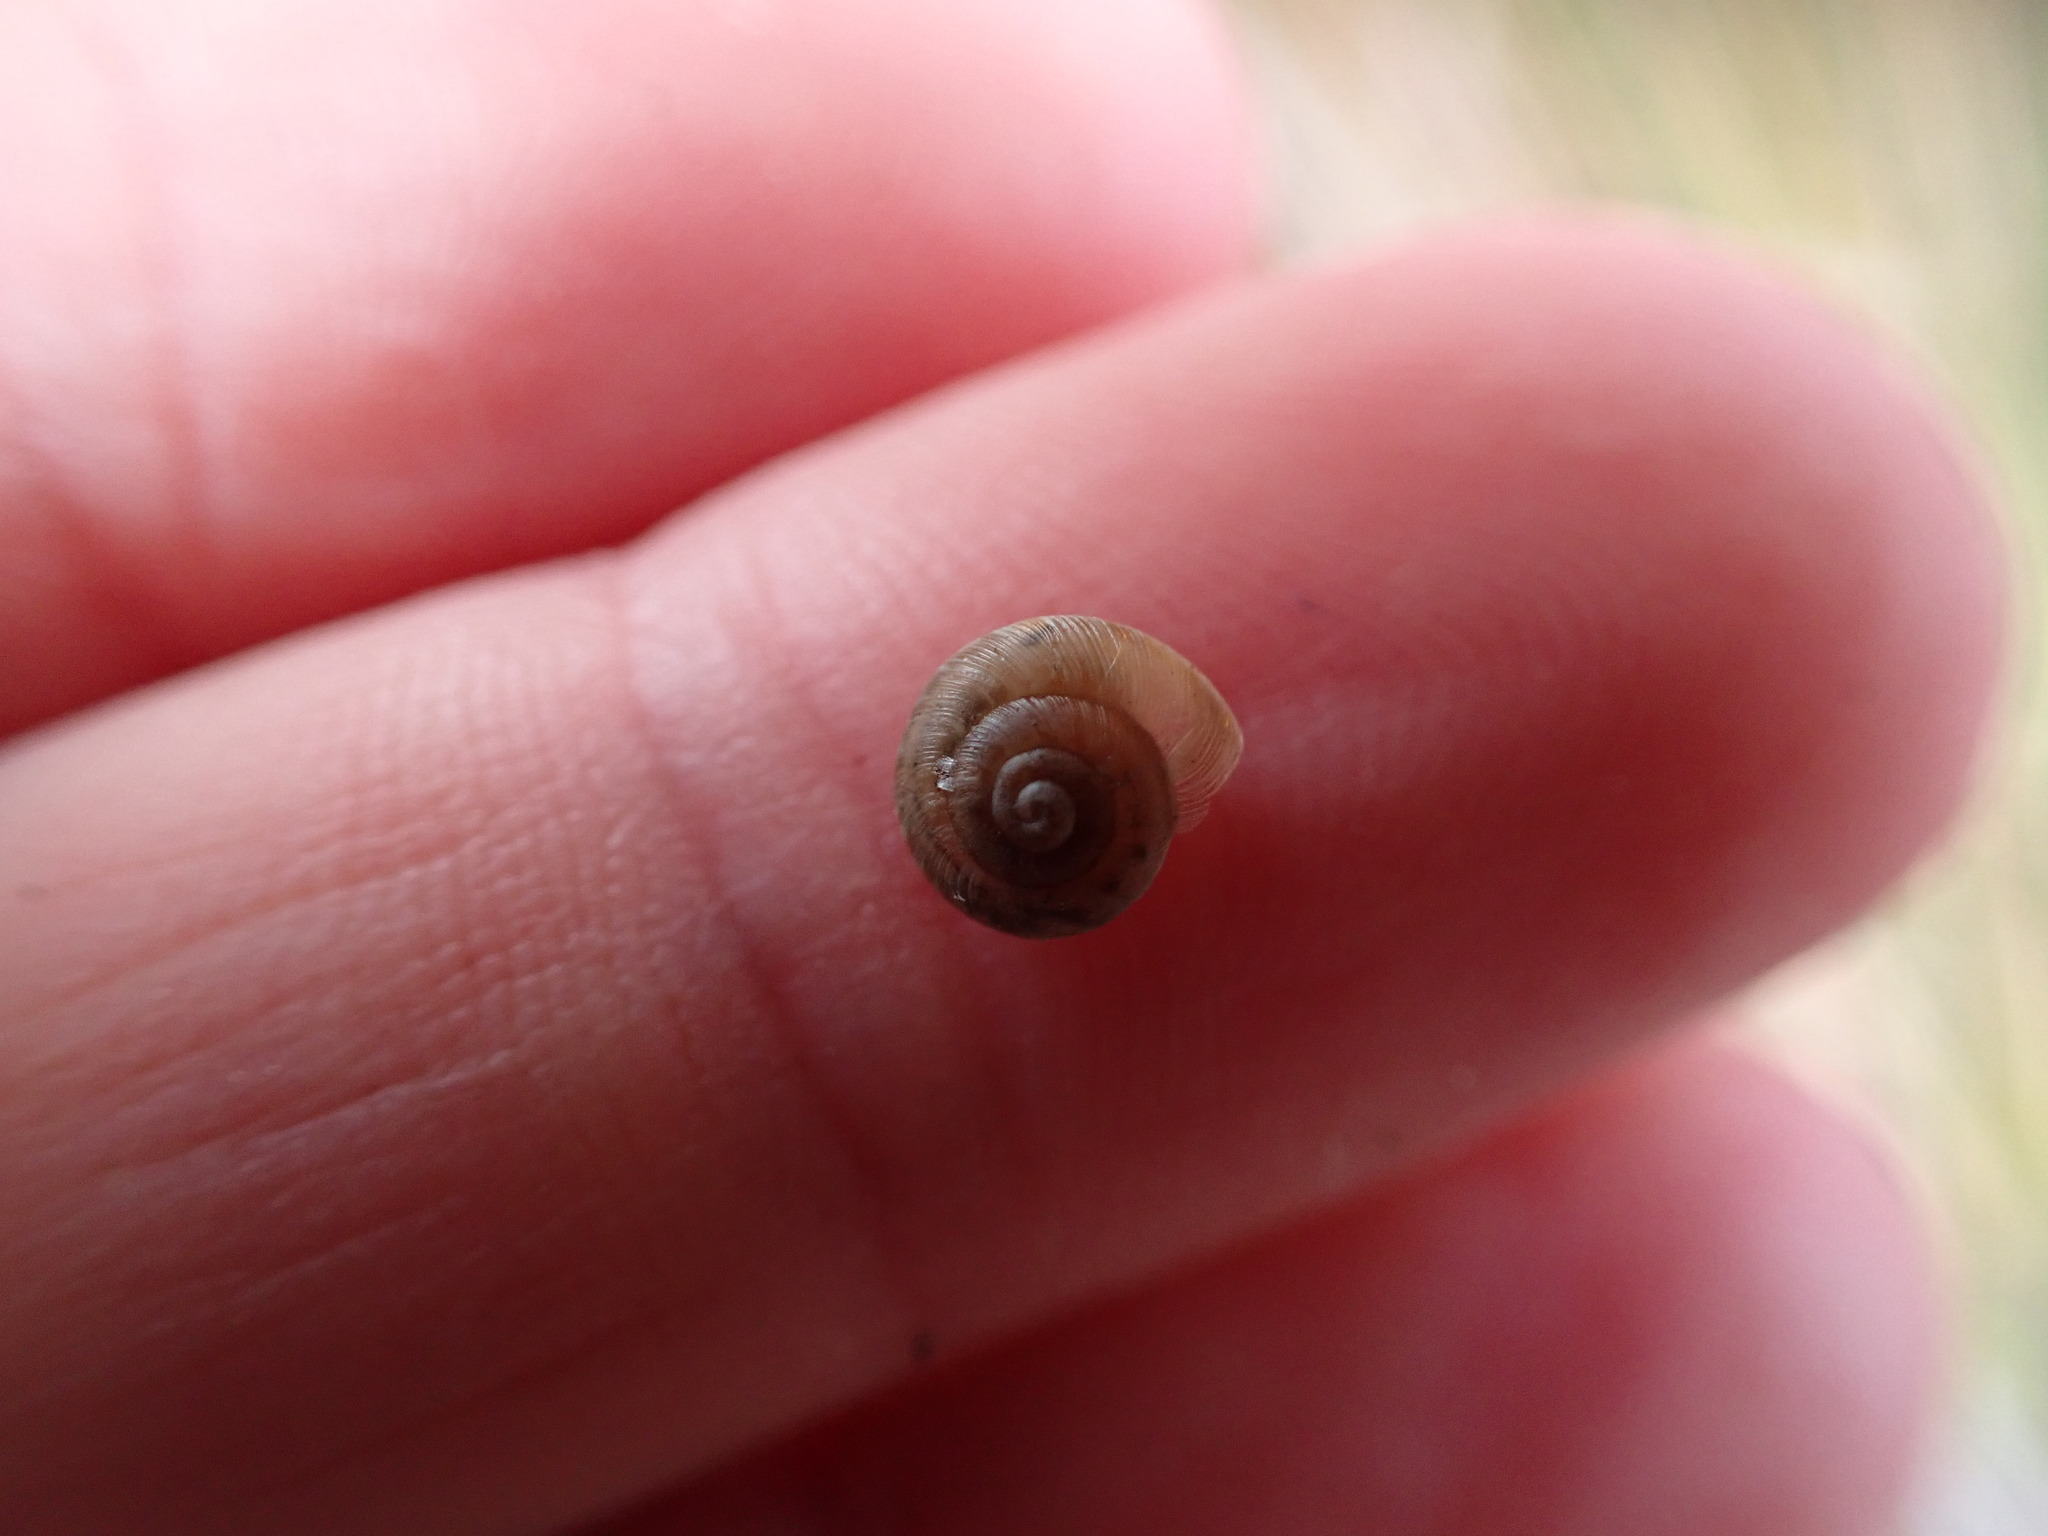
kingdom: Animalia
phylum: Mollusca
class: Gastropoda
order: Stylommatophora
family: Geomitridae
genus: Xeroplexa
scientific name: Xeroplexa intersecta
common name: Wrinkled snail
